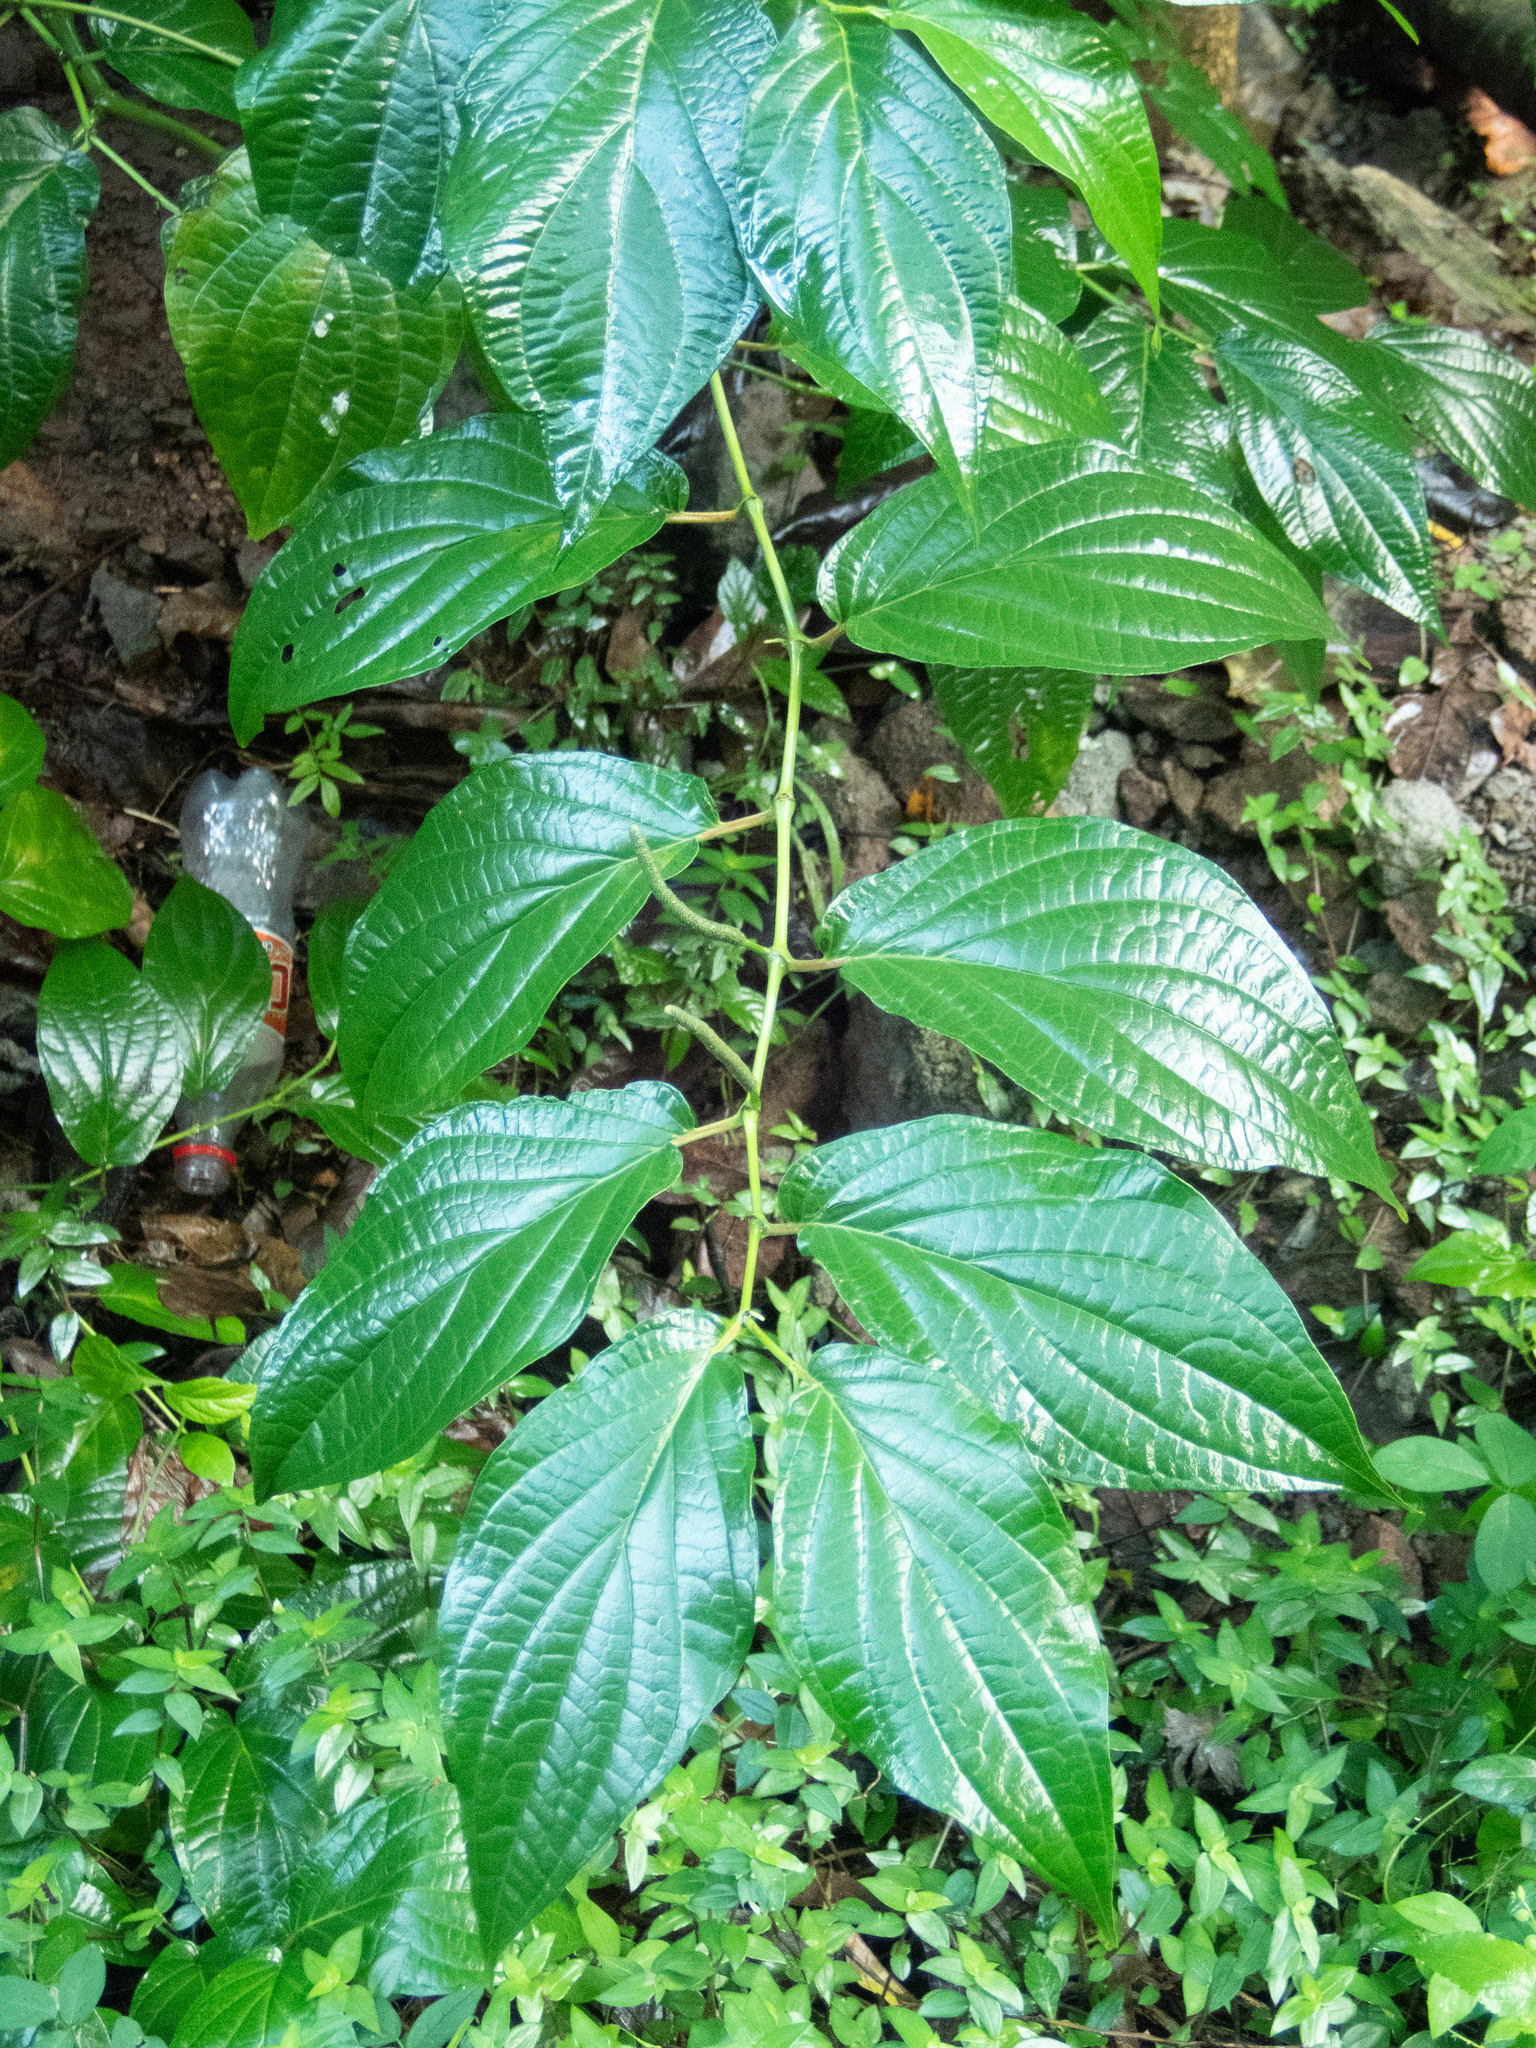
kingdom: Plantae
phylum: Tracheophyta
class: Magnoliopsida
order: Piperales
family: Piperaceae
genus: Piper
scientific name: Piper dilatatum
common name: Higuillo
